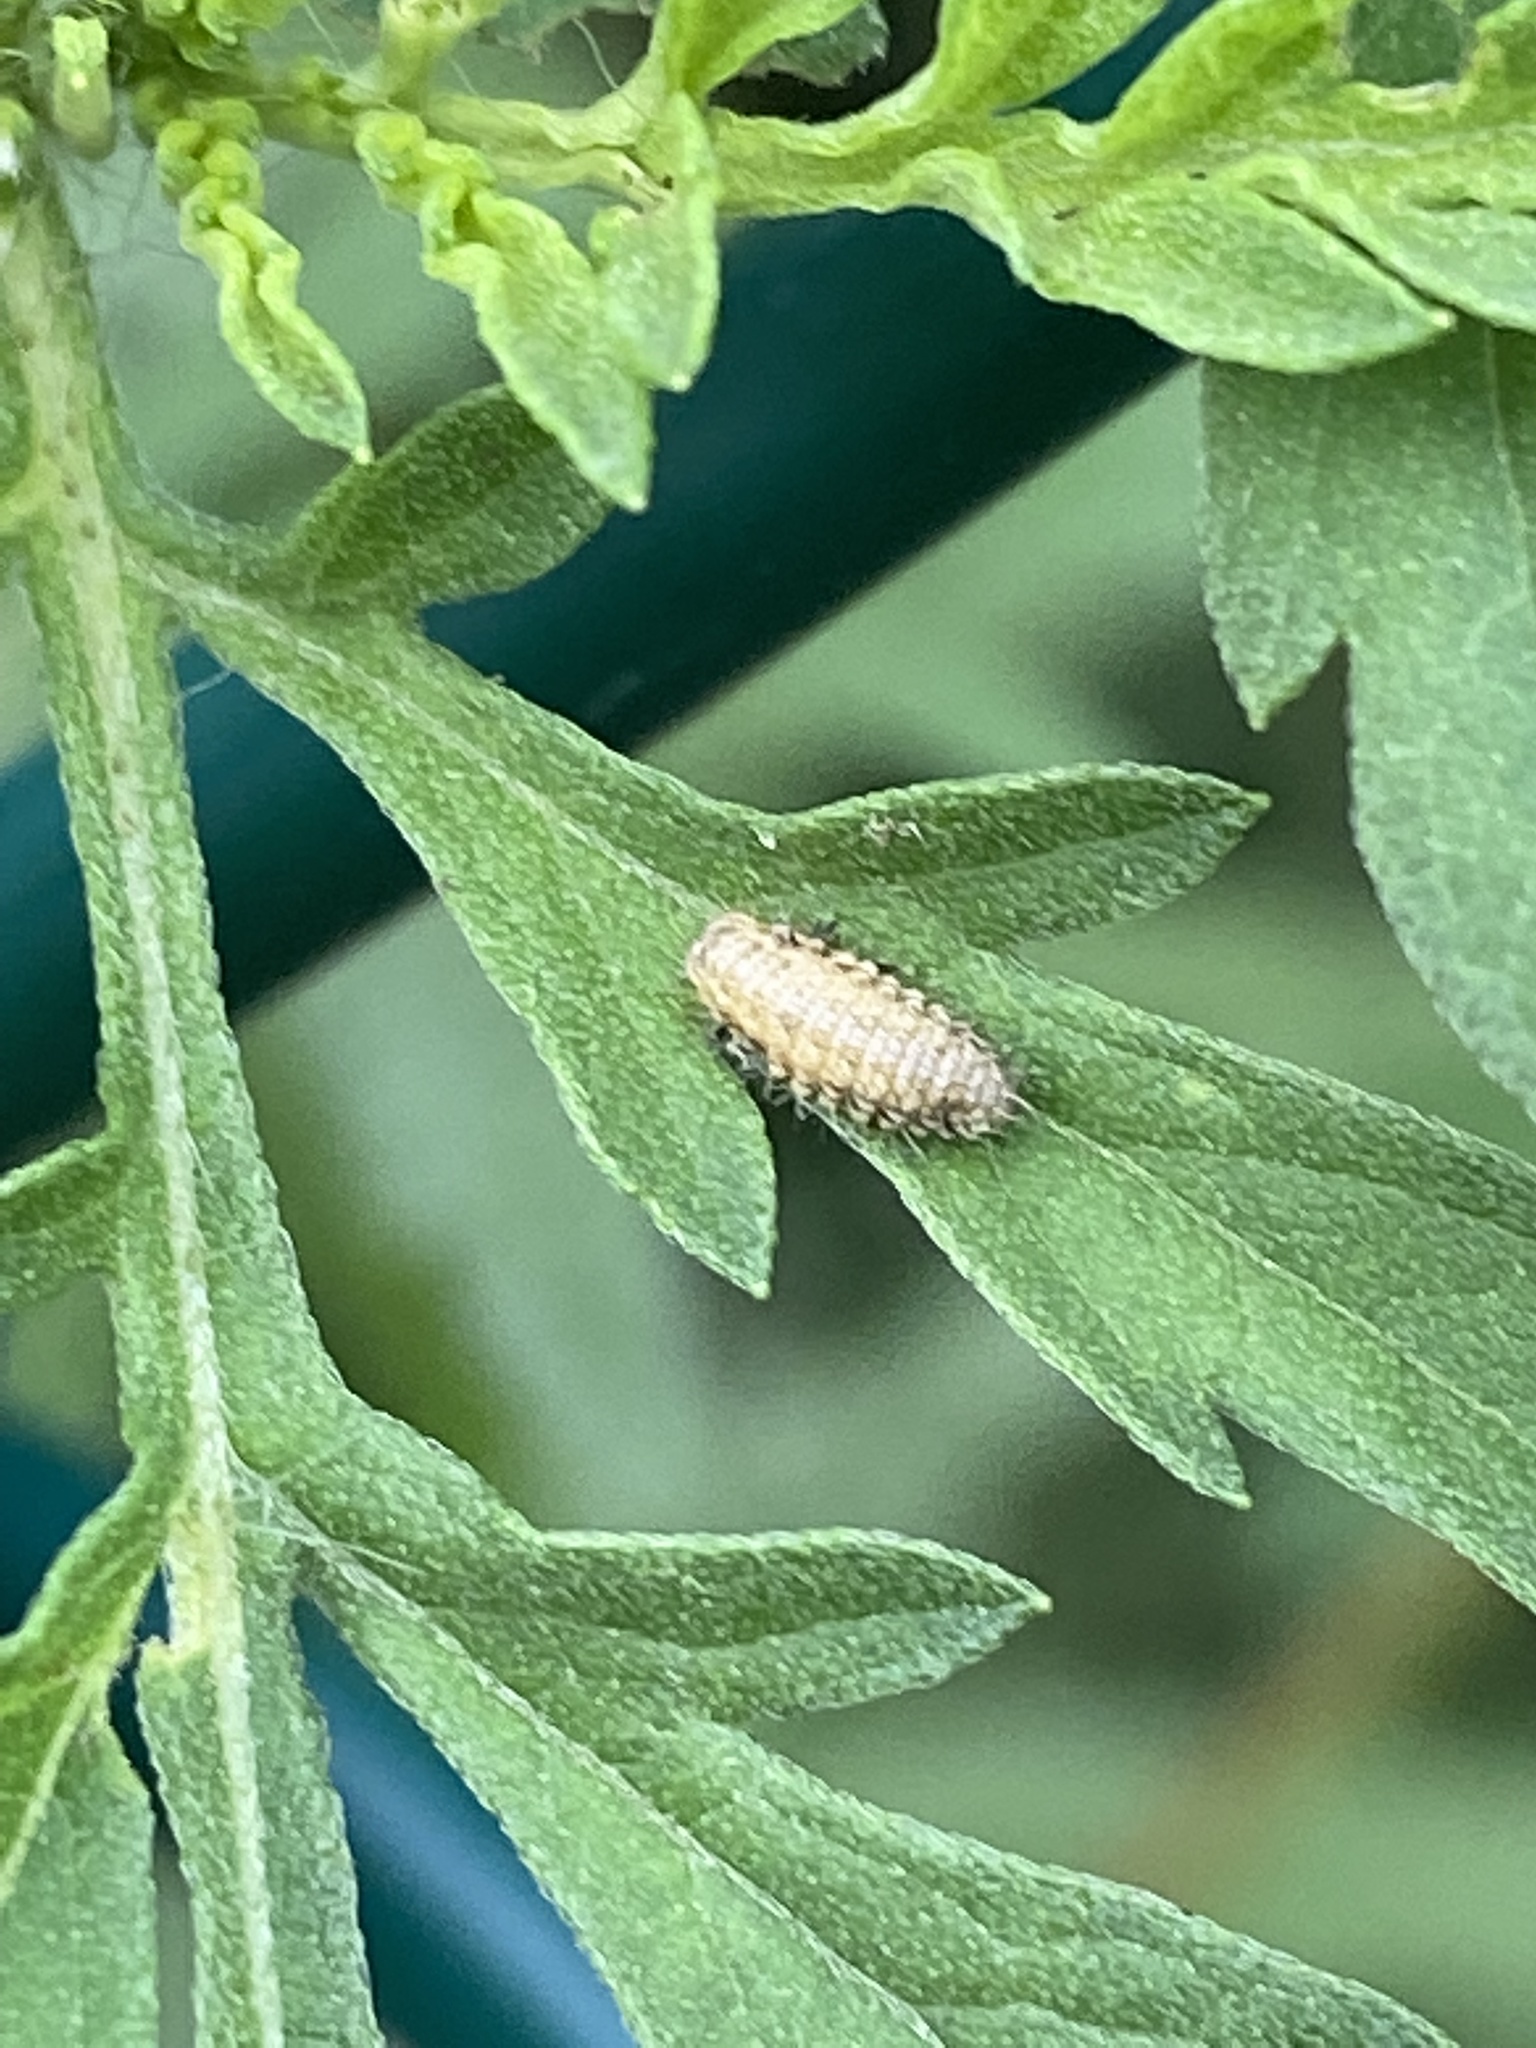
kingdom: Animalia
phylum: Arthropoda
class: Insecta
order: Coleoptera
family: Chrysomelidae
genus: Ophraella
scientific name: Ophraella communa
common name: Ragweed leaf beetle
